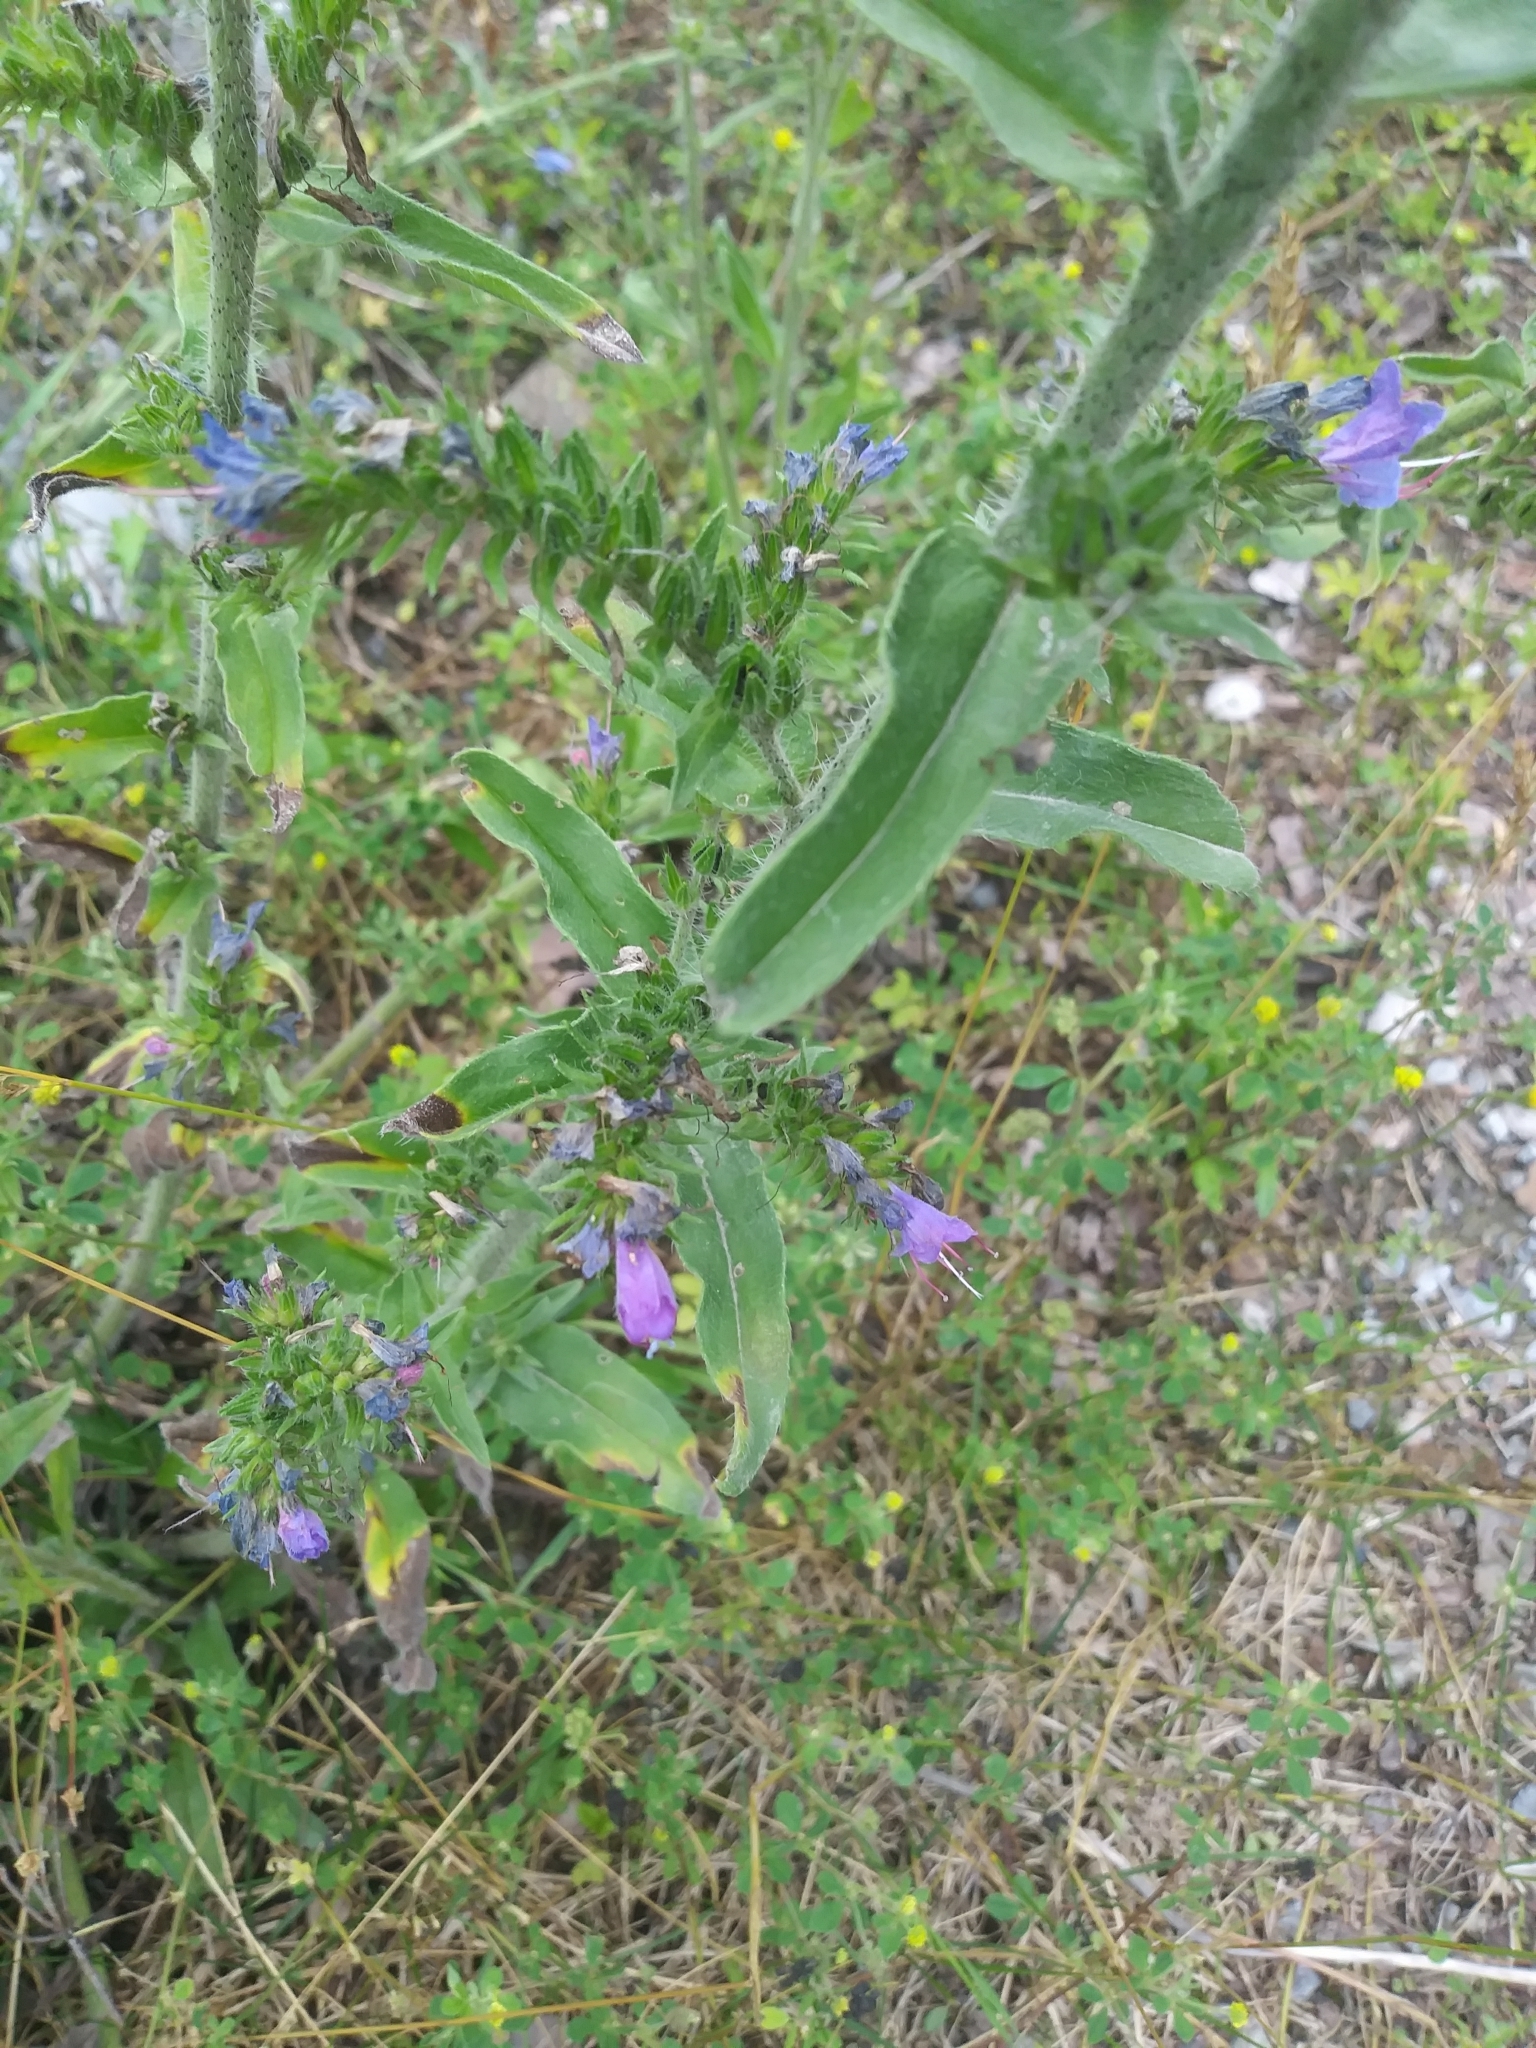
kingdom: Plantae
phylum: Tracheophyta
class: Magnoliopsida
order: Boraginales
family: Boraginaceae
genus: Echium
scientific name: Echium vulgare
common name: Common viper's bugloss
